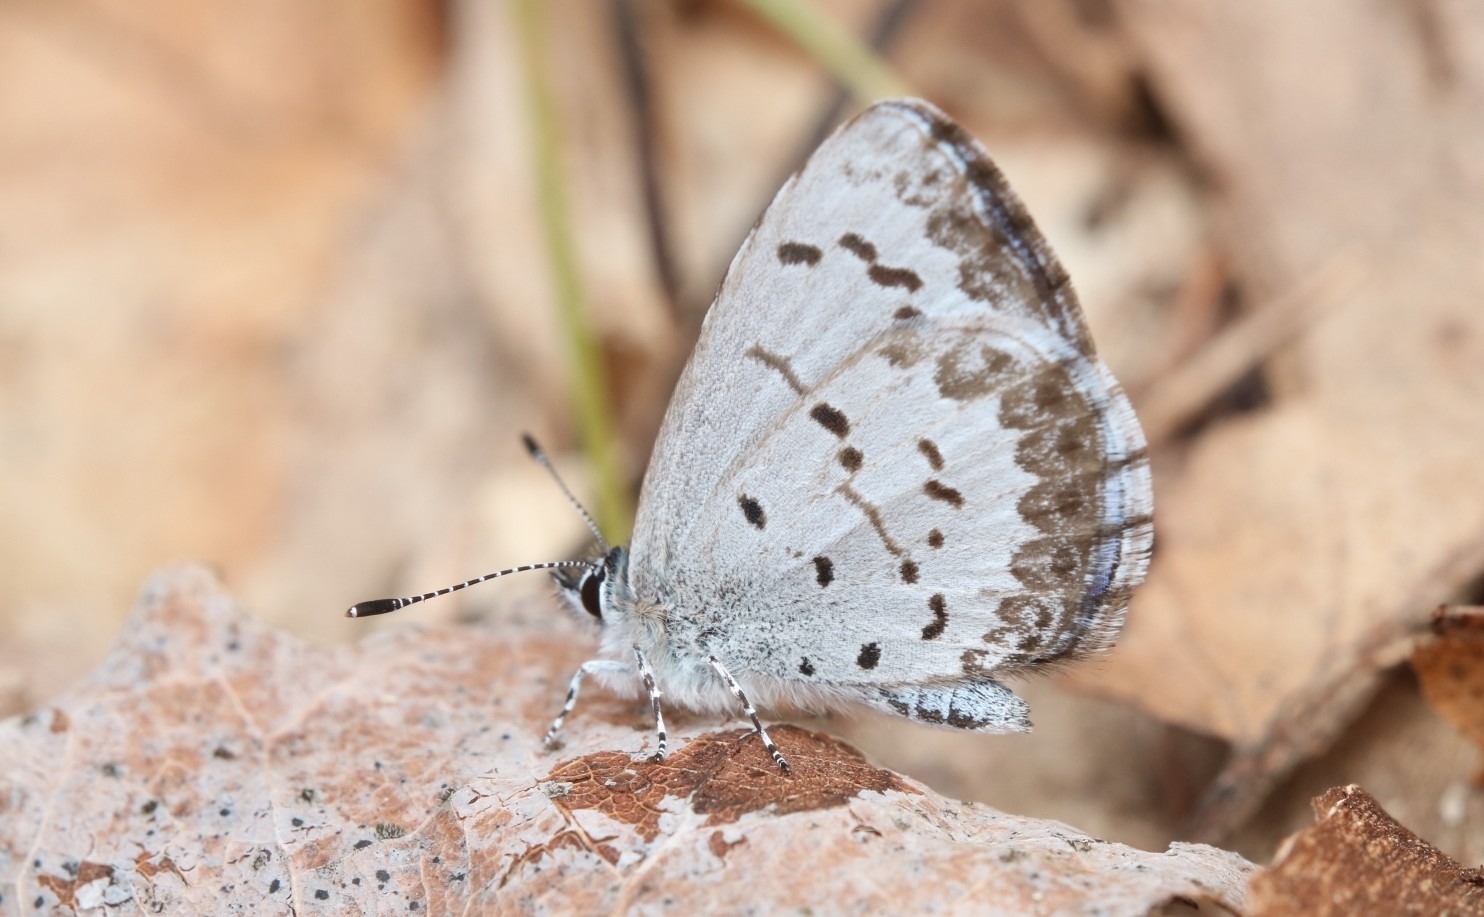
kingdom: Animalia
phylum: Arthropoda
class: Insecta
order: Lepidoptera
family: Lycaenidae
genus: Celastrina
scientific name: Celastrina lucia
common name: Lucia azure
